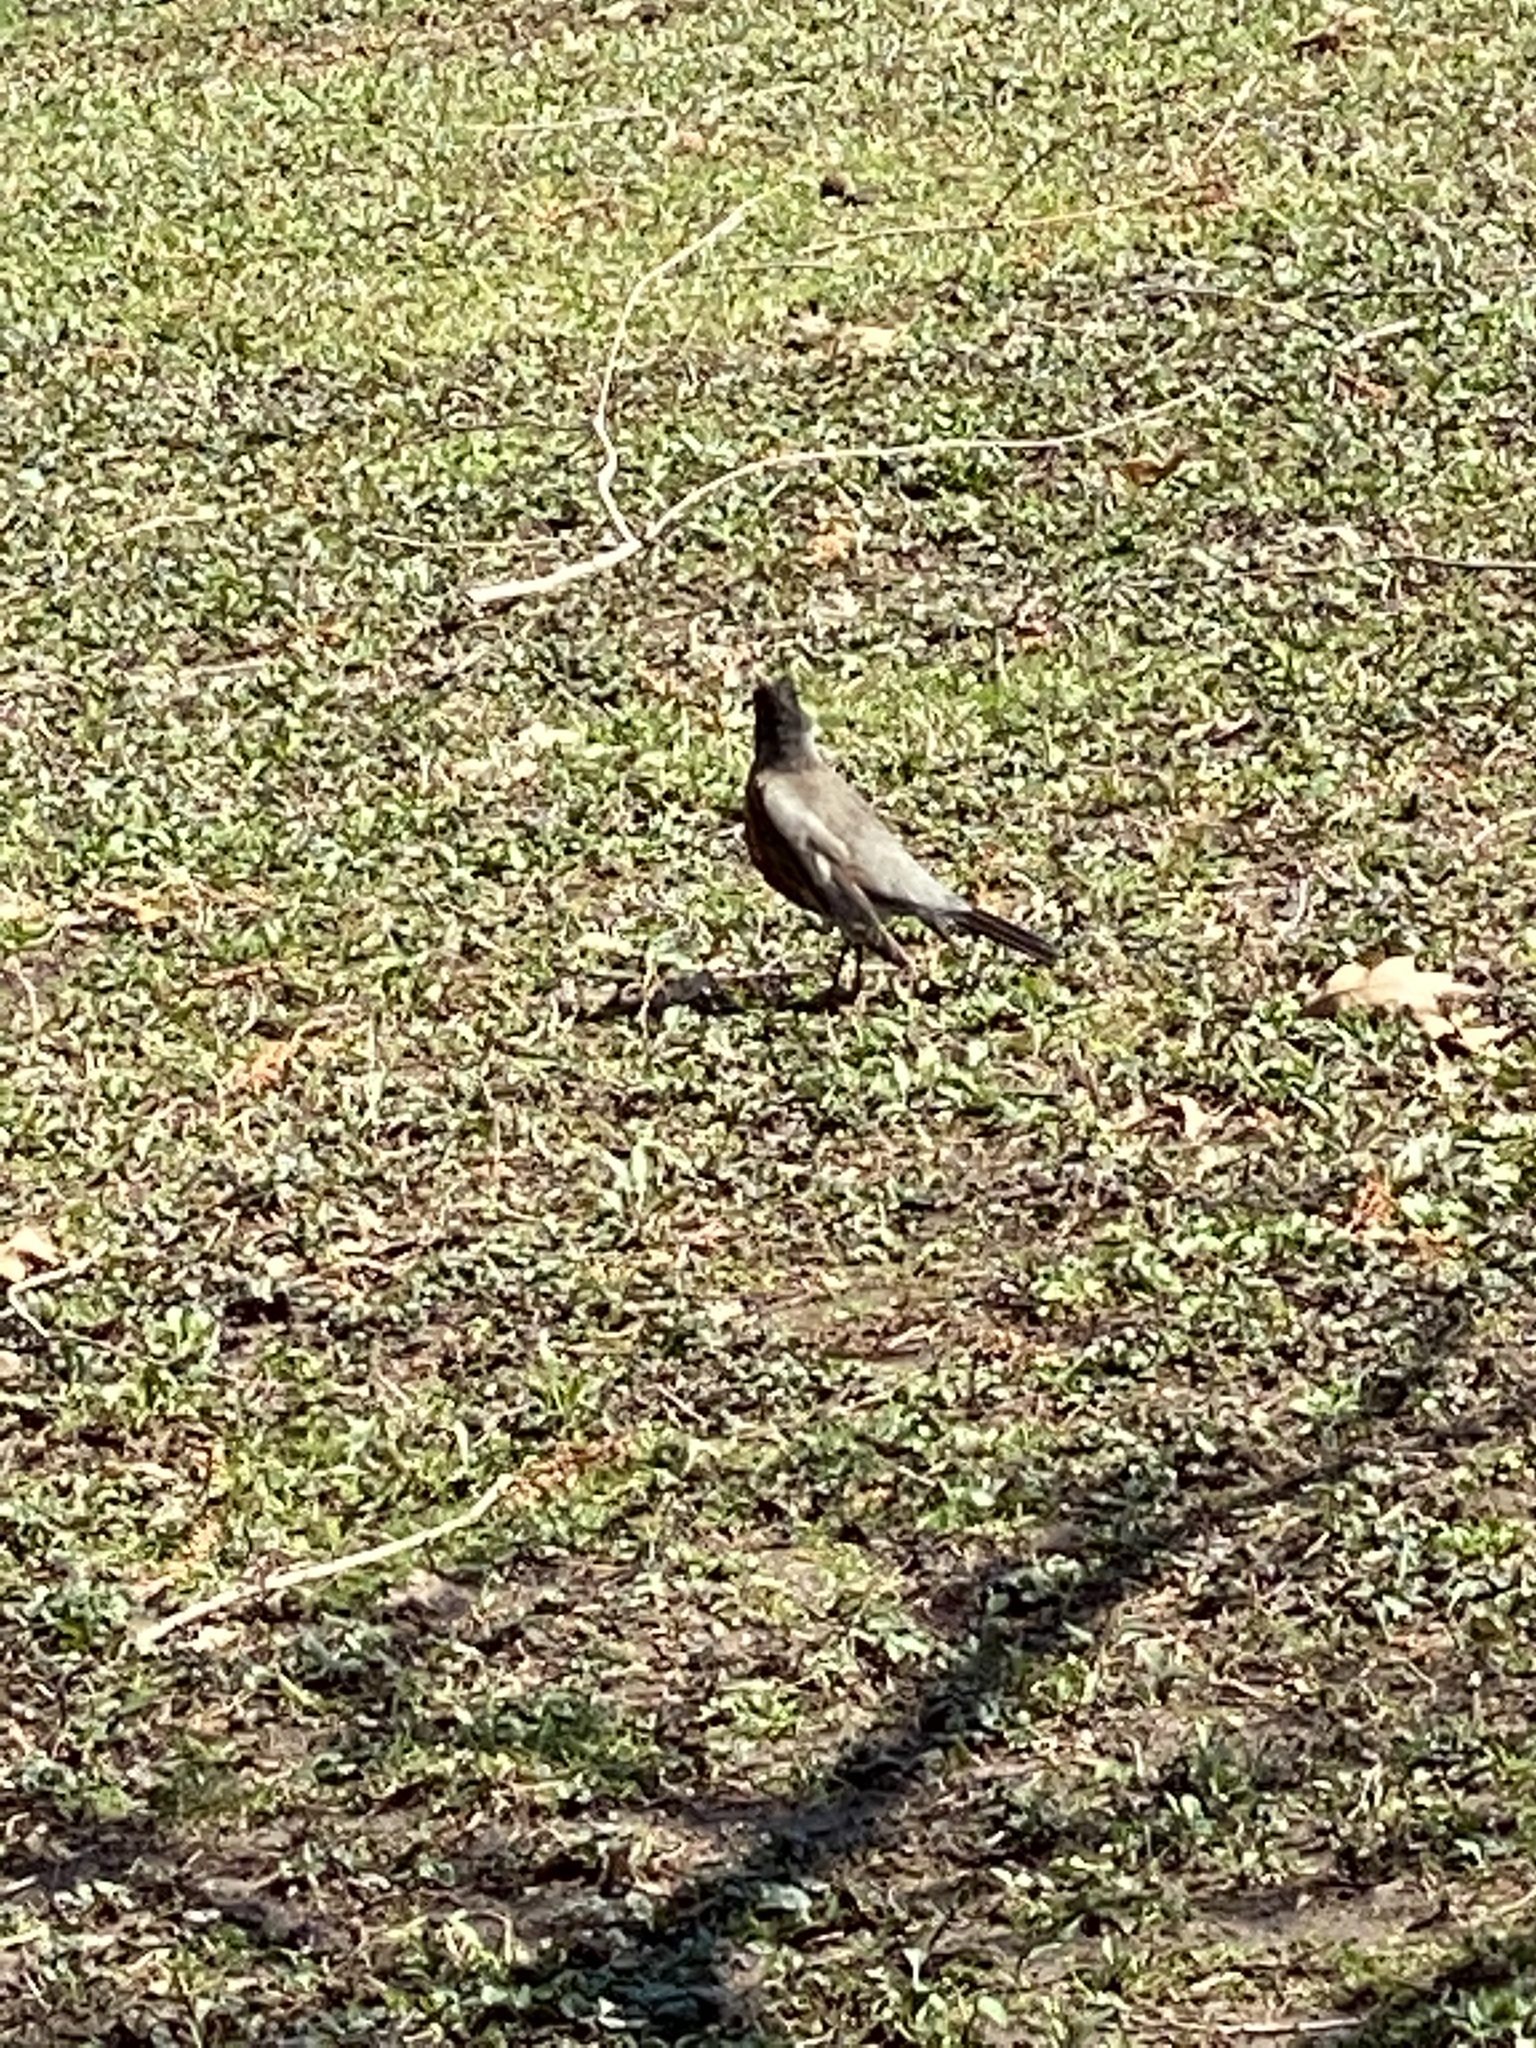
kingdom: Animalia
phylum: Chordata
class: Aves
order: Passeriformes
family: Turdidae
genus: Turdus
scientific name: Turdus migratorius
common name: American robin
